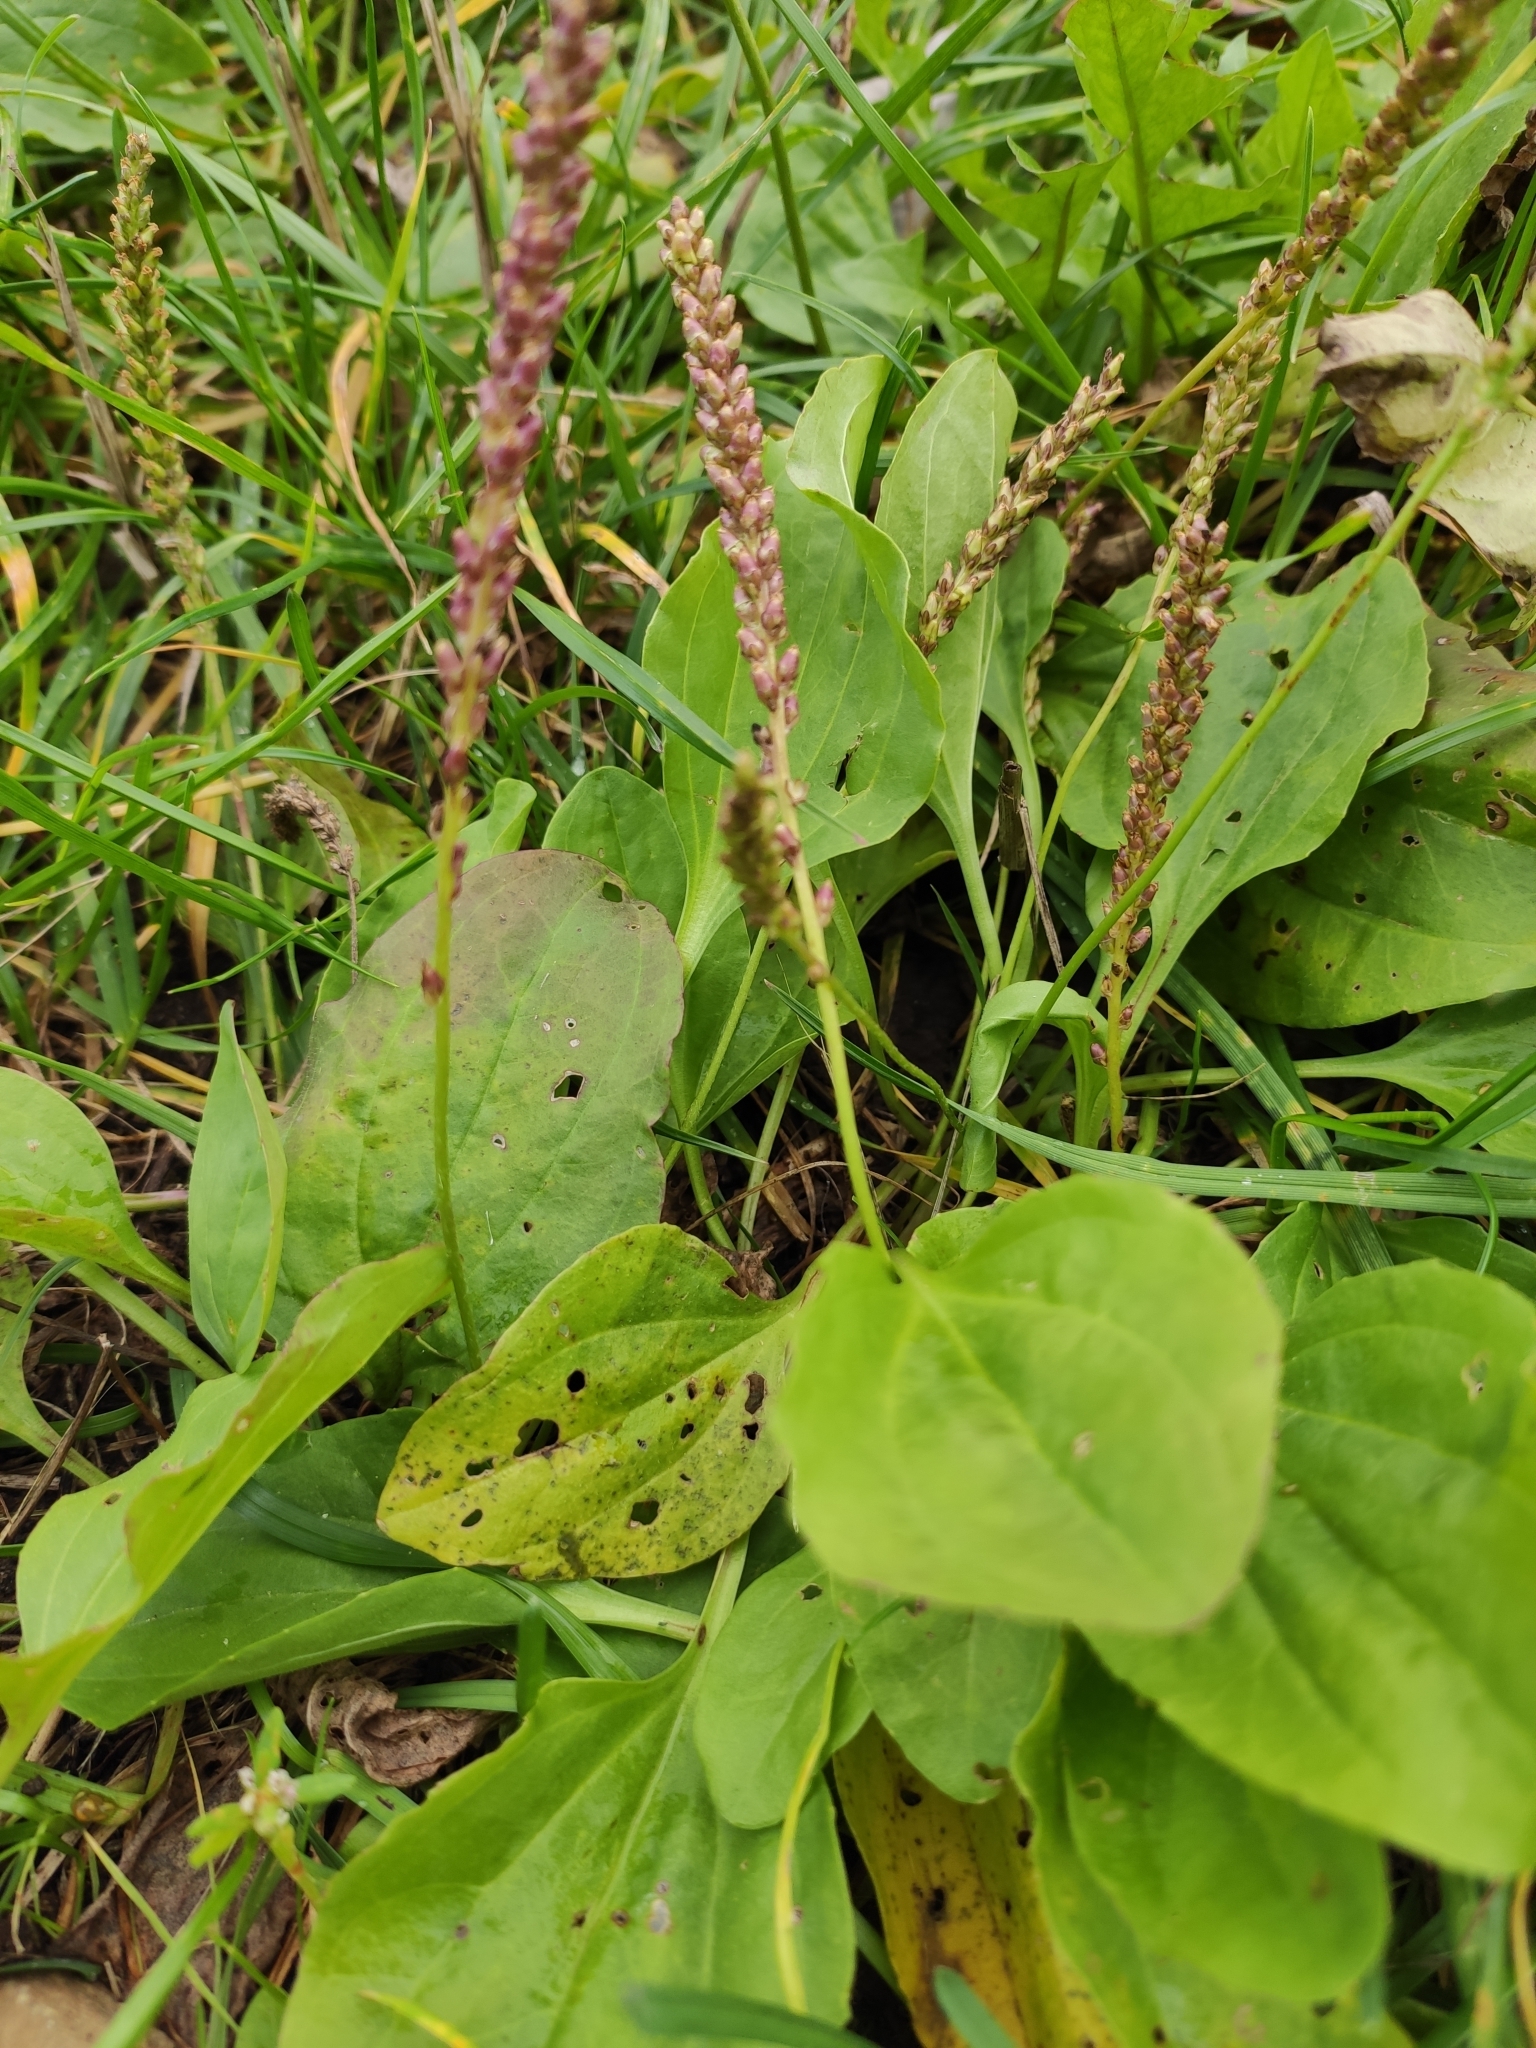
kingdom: Plantae
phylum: Tracheophyta
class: Magnoliopsida
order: Lamiales
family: Plantaginaceae
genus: Plantago
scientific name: Plantago major
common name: Common plantain
